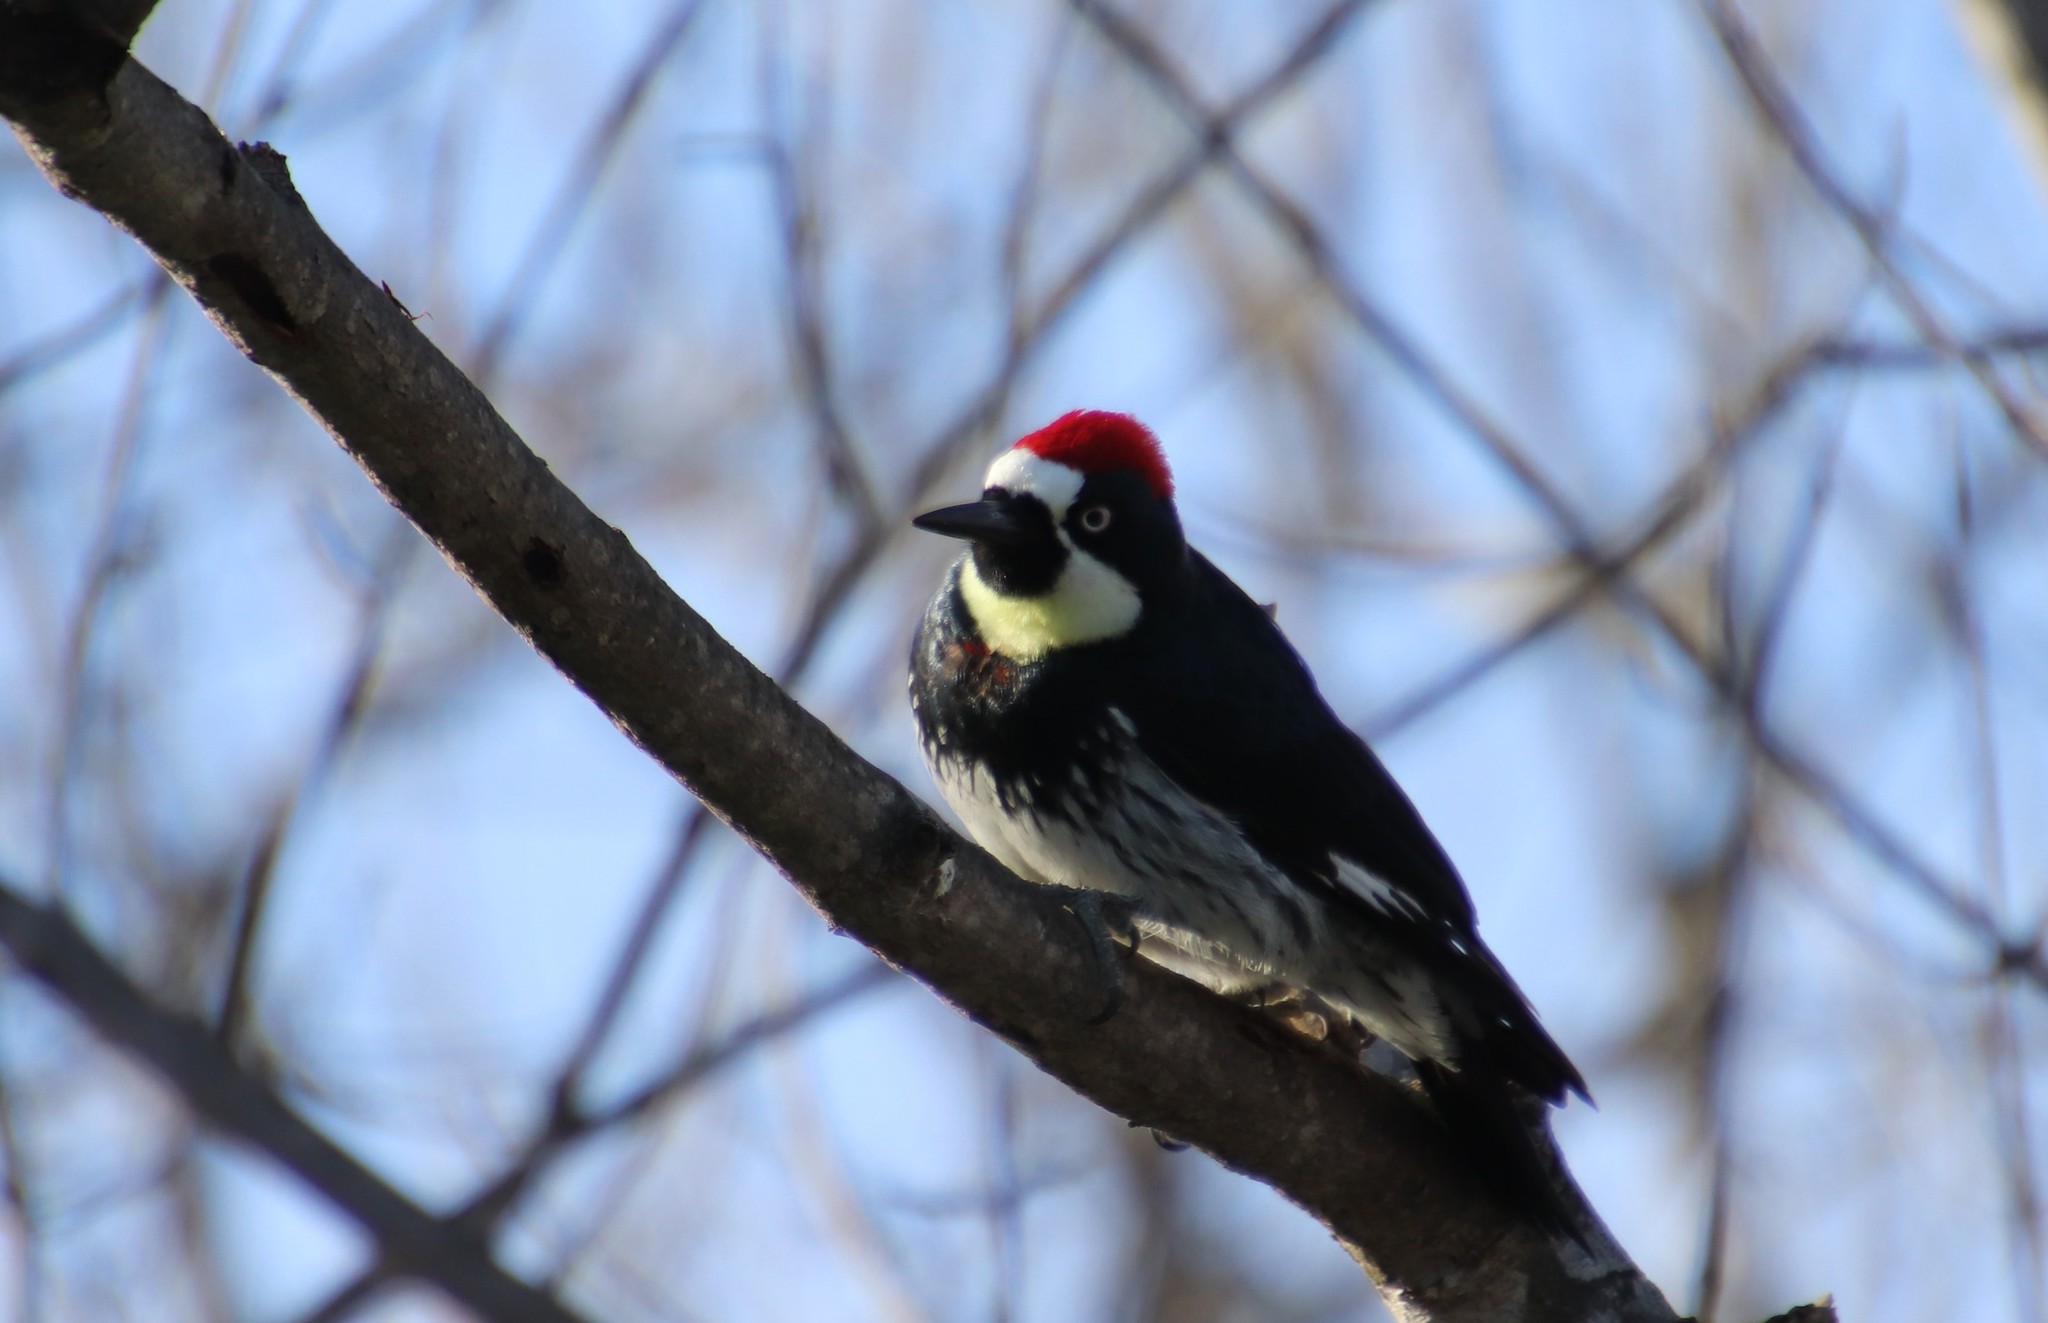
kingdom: Animalia
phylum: Chordata
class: Aves
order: Piciformes
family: Picidae
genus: Melanerpes
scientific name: Melanerpes formicivorus
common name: Acorn woodpecker
